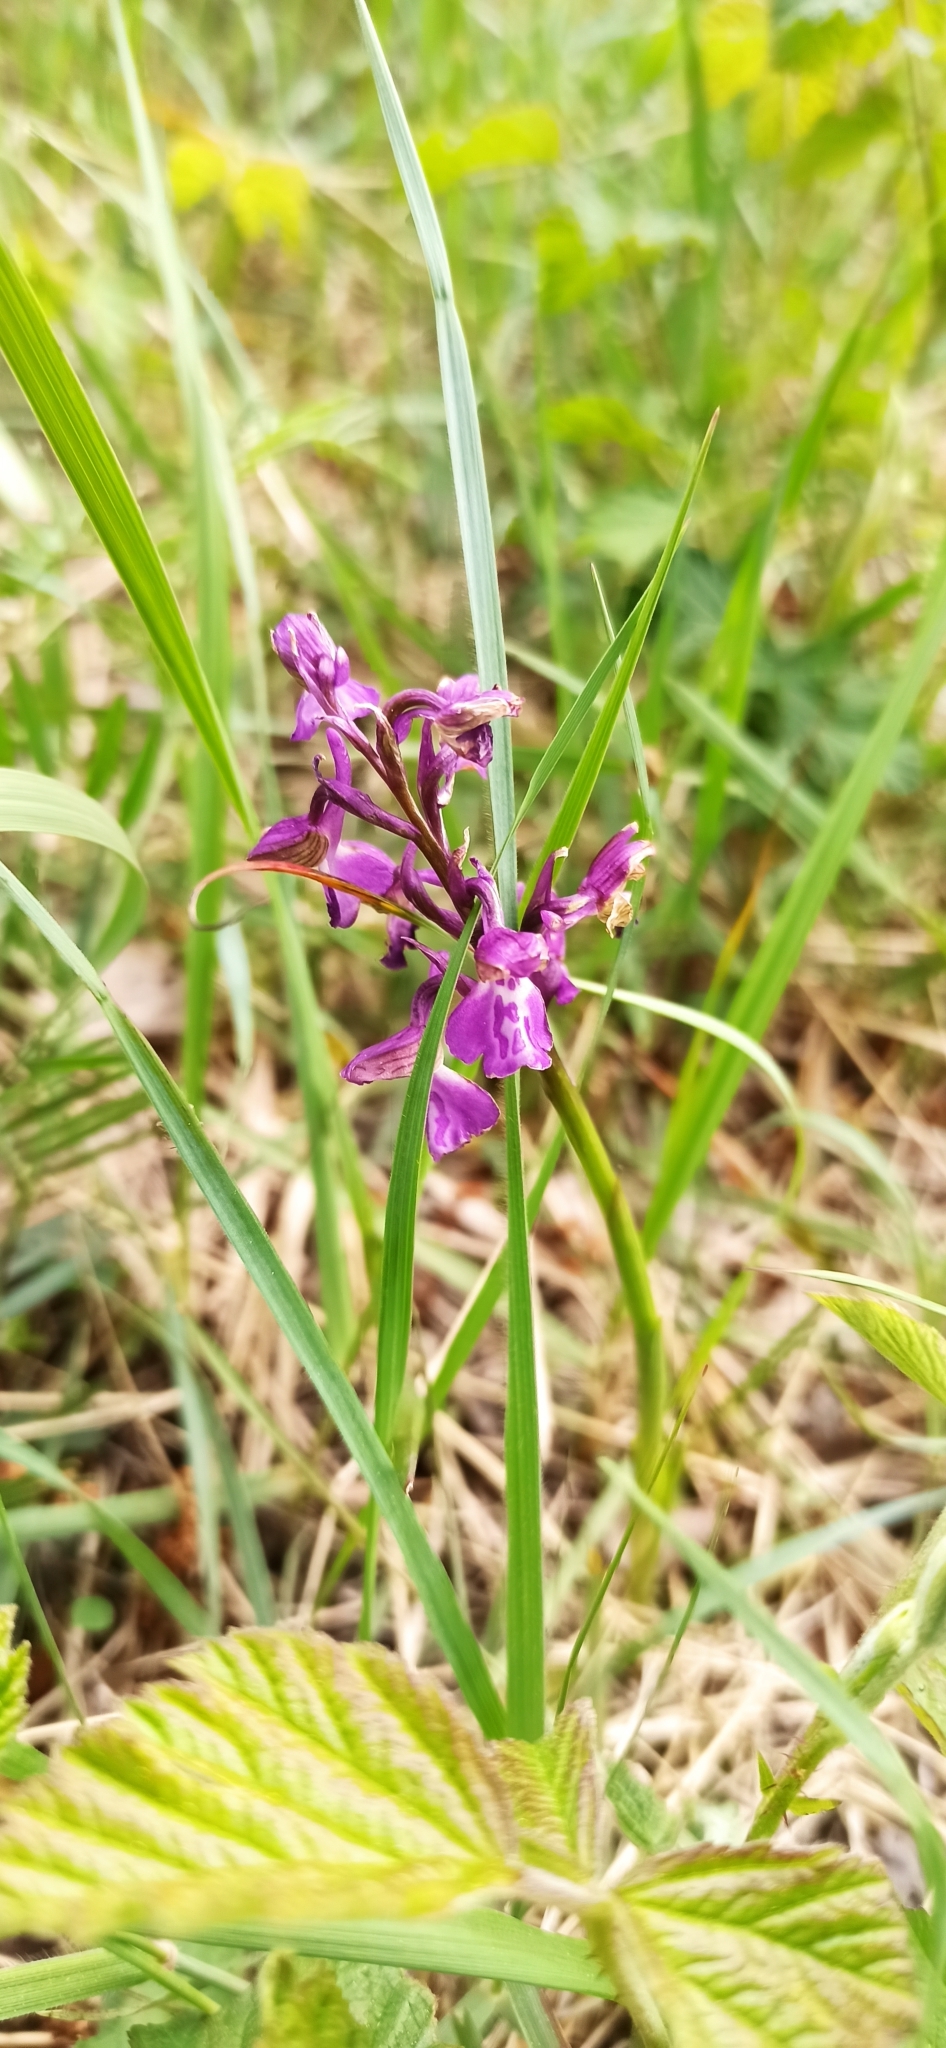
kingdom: Plantae
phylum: Tracheophyta
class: Liliopsida
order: Asparagales
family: Orchidaceae
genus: Anacamptis
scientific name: Anacamptis morio
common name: Green-winged orchid
